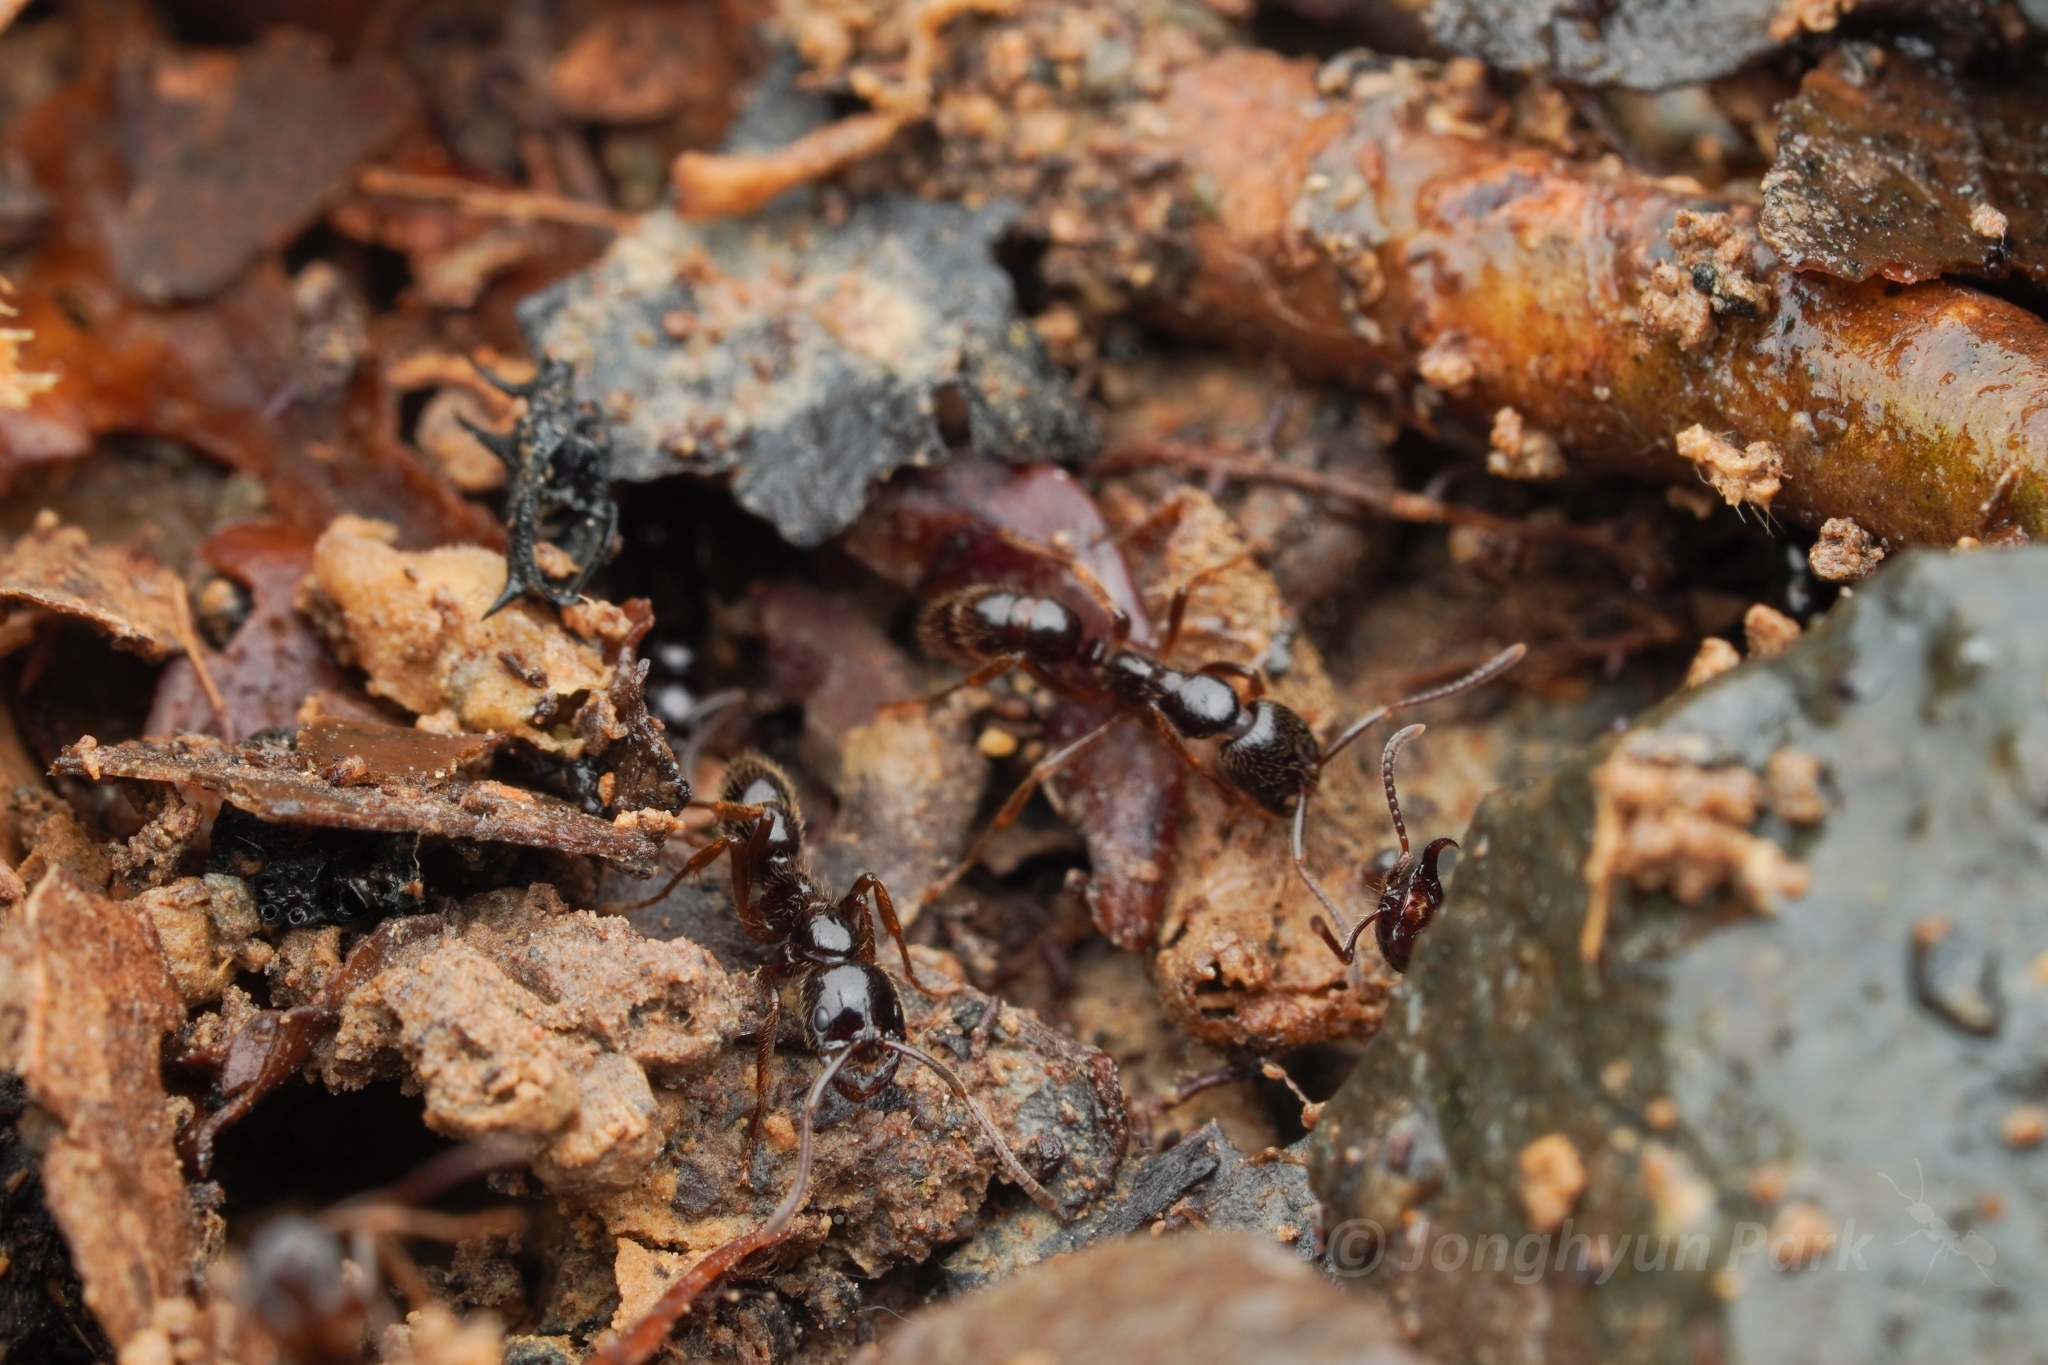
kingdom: Animalia
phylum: Arthropoda
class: Insecta
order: Hymenoptera
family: Formicidae
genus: Leptogenys
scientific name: Leptogenys processionalis
